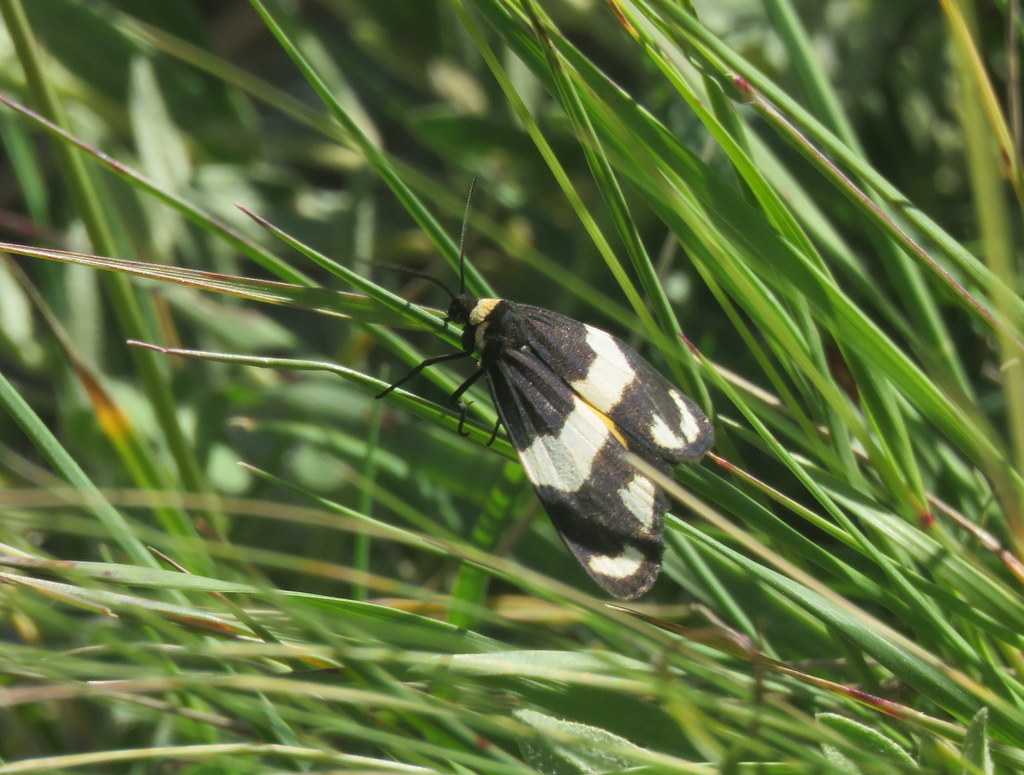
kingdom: Animalia
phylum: Arthropoda
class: Insecta
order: Lepidoptera
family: Erebidae
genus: Eudesmia
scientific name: Eudesmia
